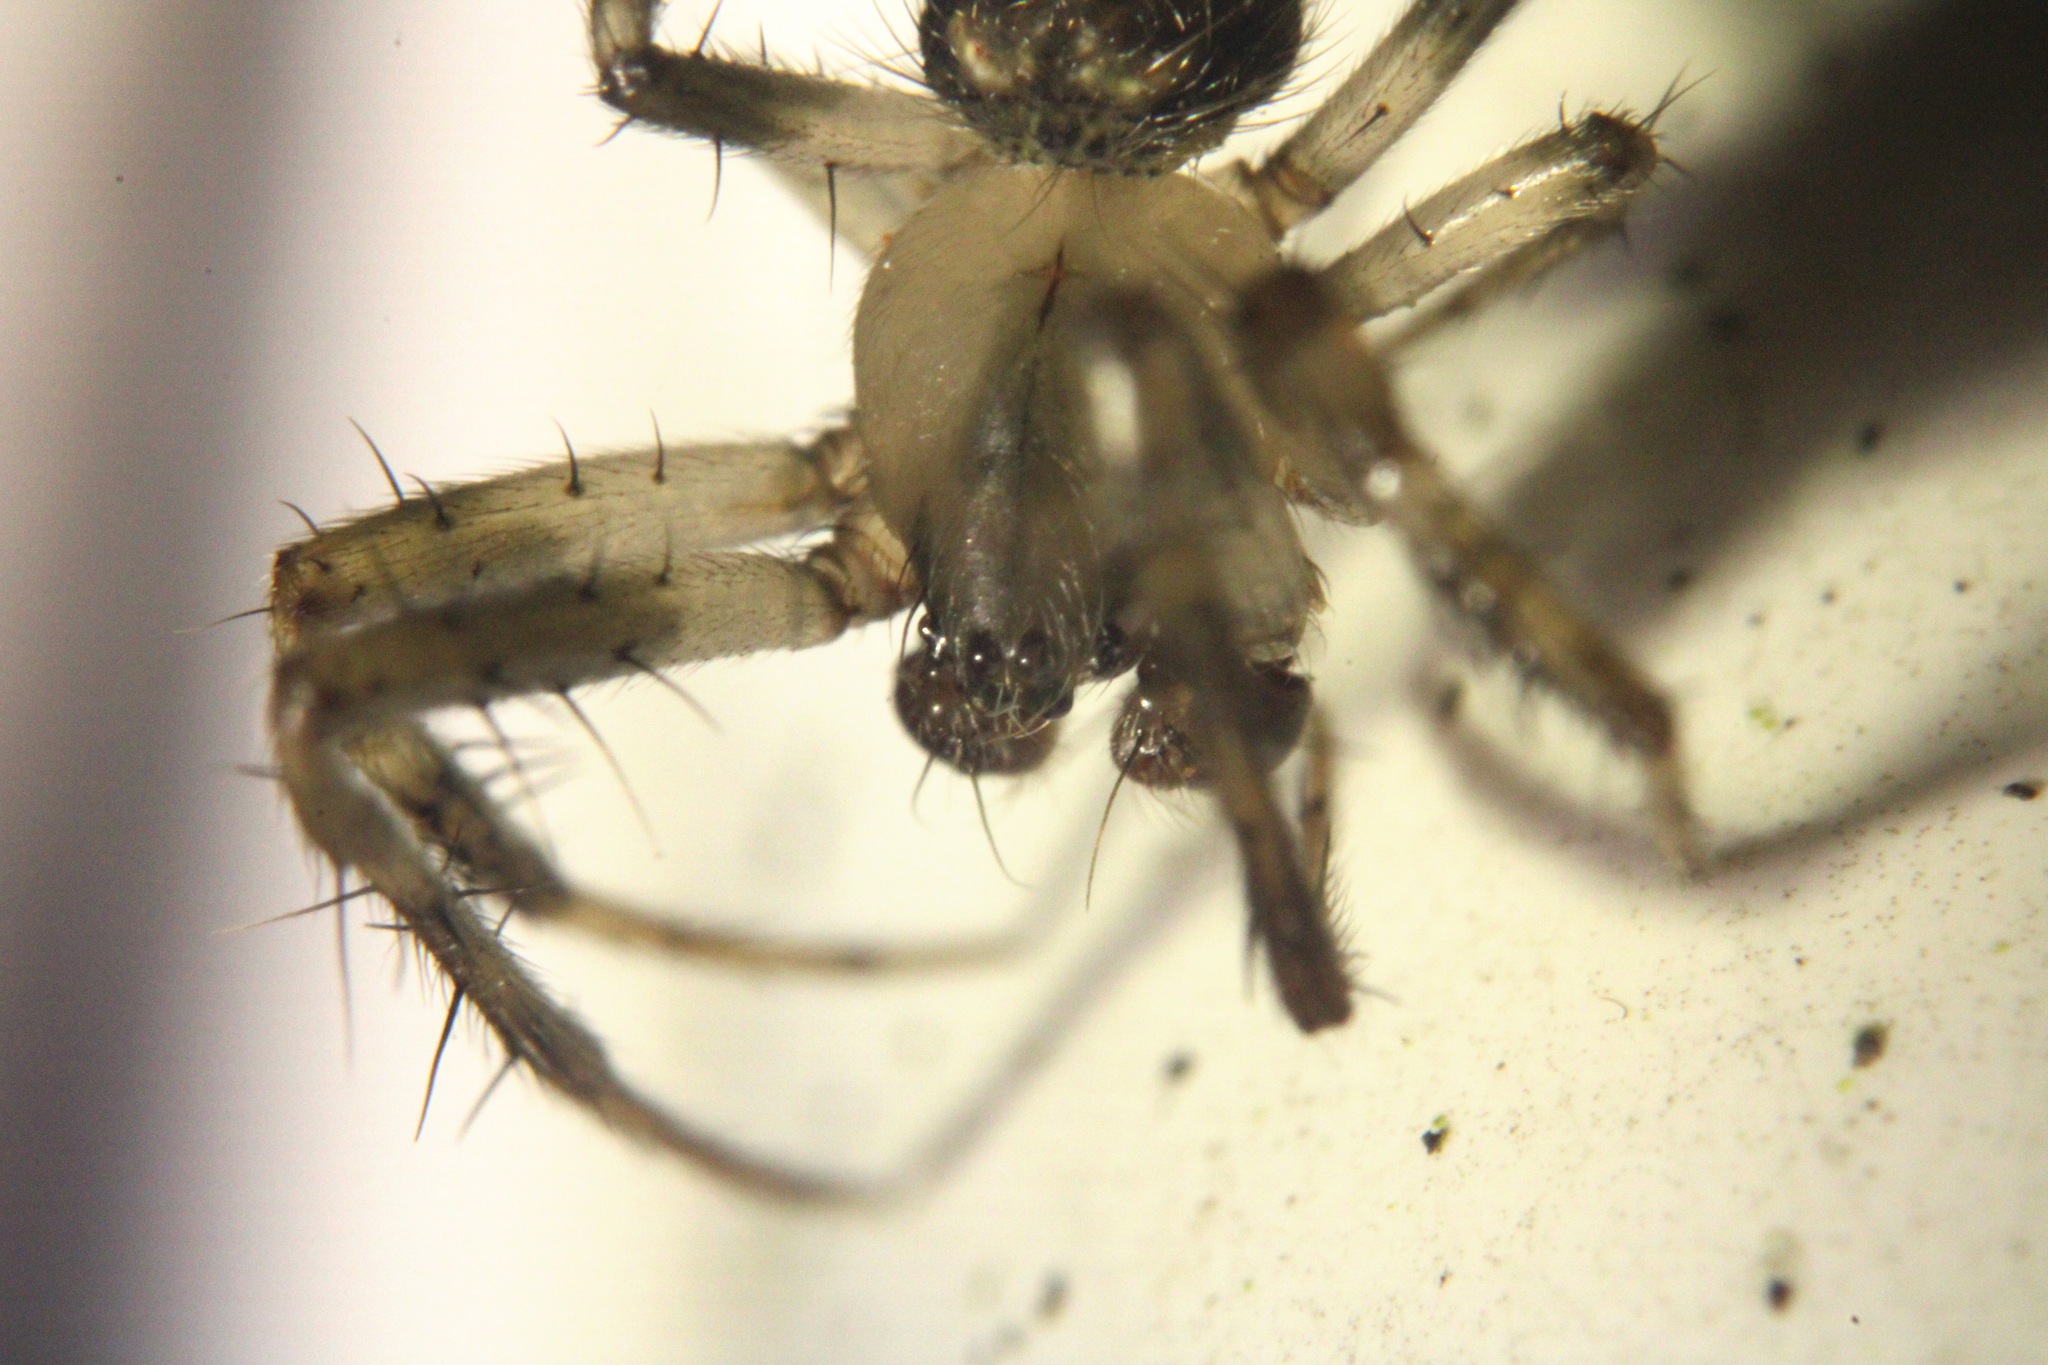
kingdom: Animalia
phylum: Arthropoda
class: Arachnida
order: Araneae
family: Araneidae
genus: Araneus
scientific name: Araneus pegnia
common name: Orb weavers
